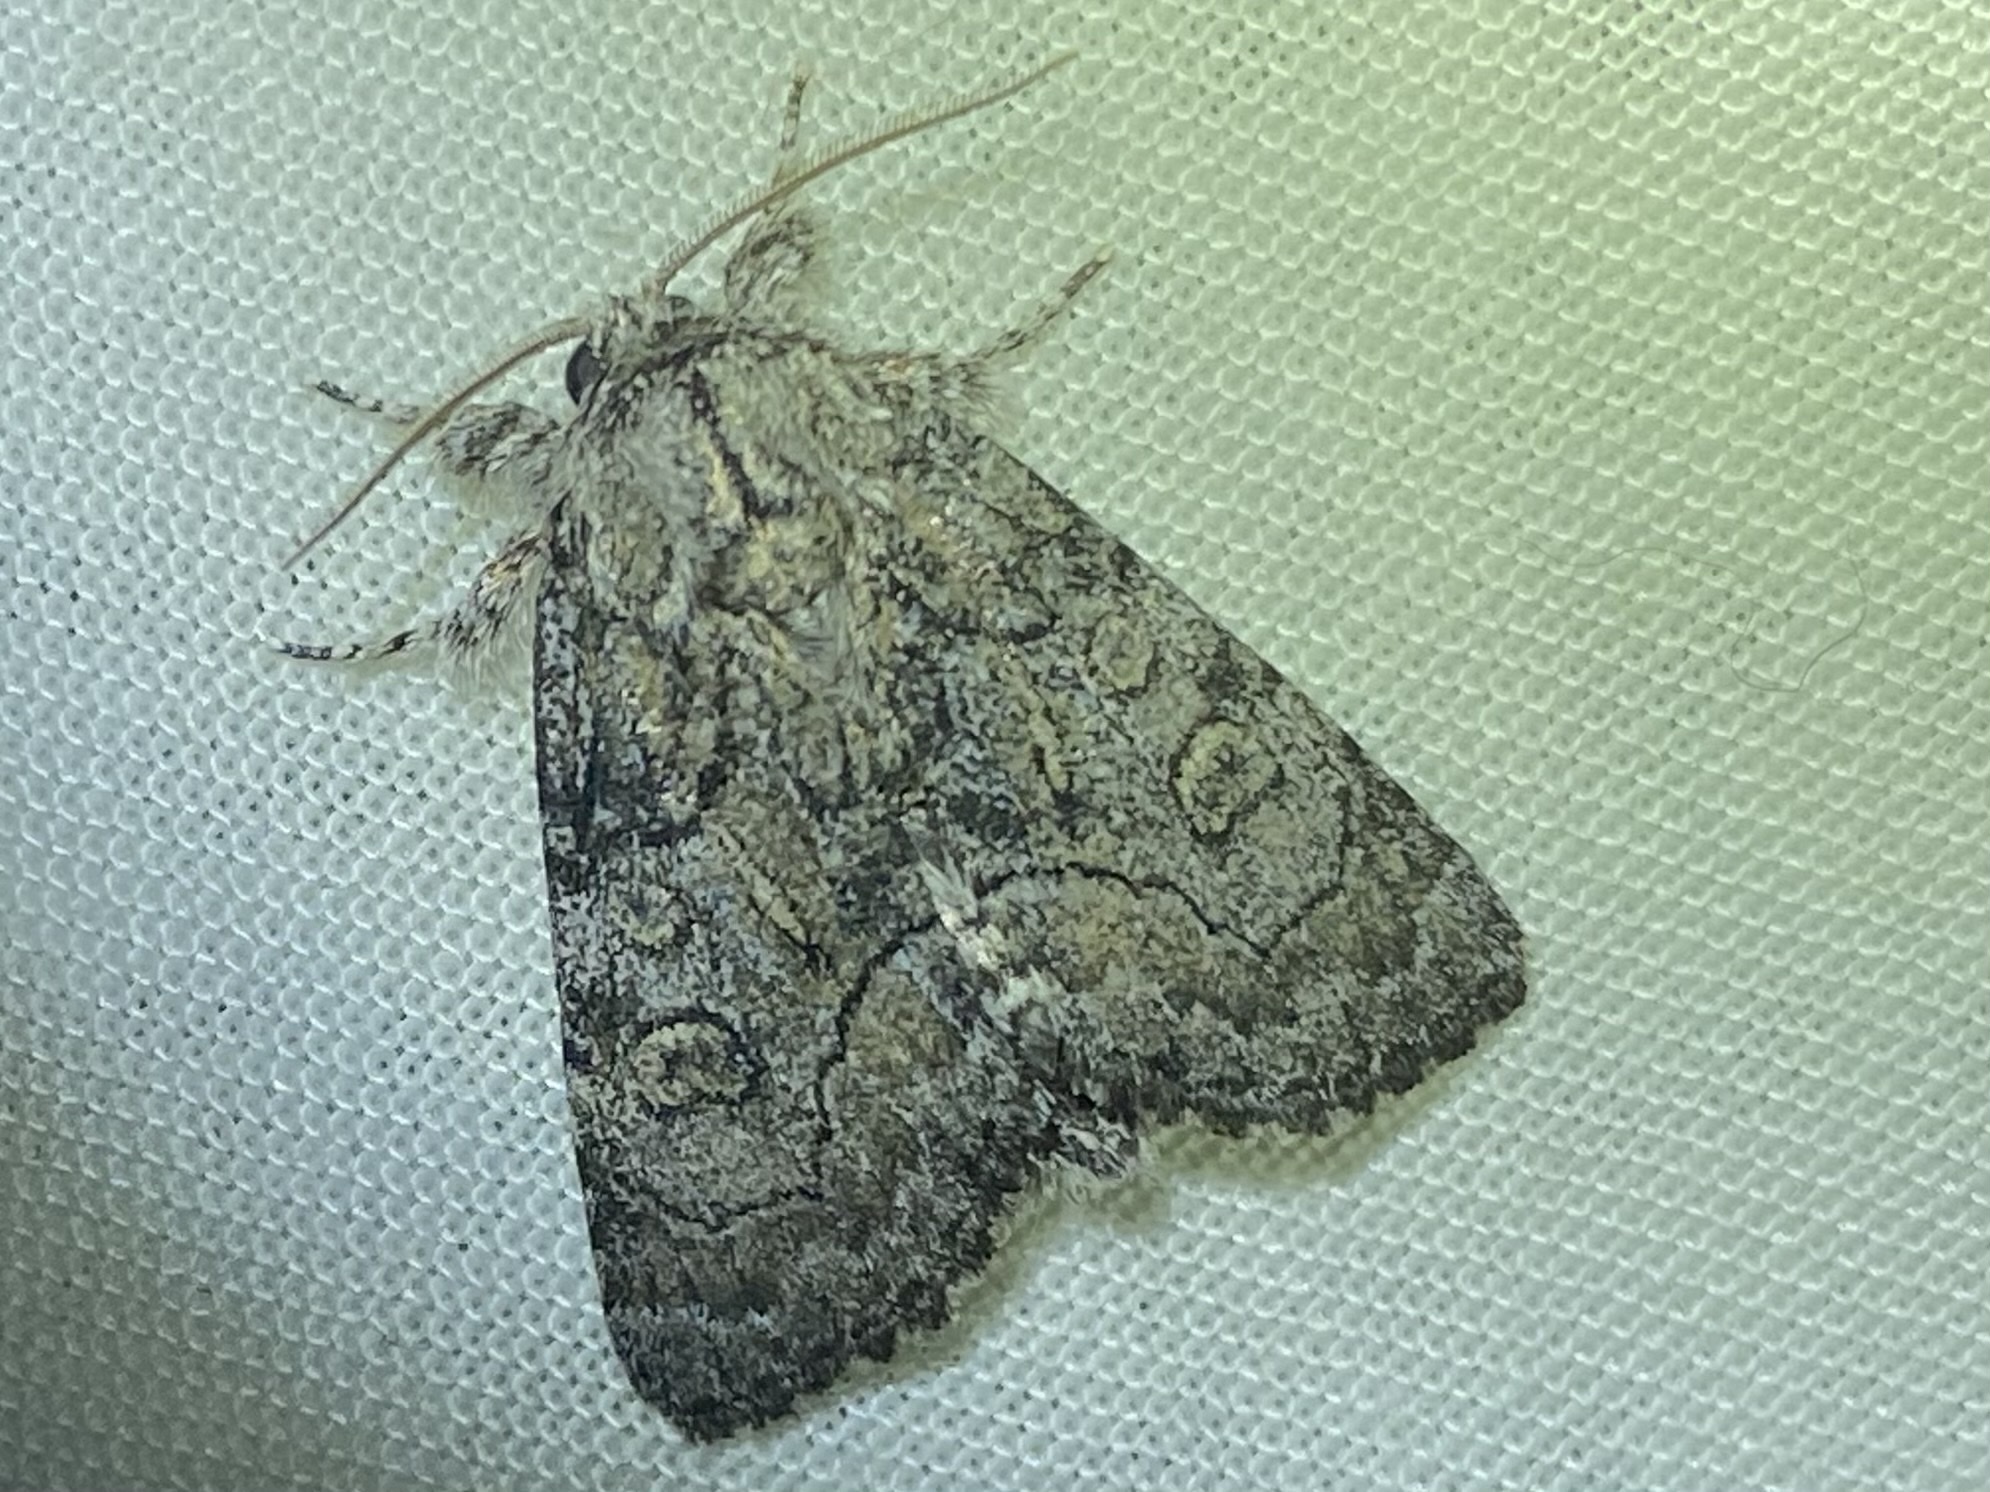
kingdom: Animalia
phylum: Arthropoda
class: Insecta
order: Lepidoptera
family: Noctuidae
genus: Raphia
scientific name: Raphia frater
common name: Brother
